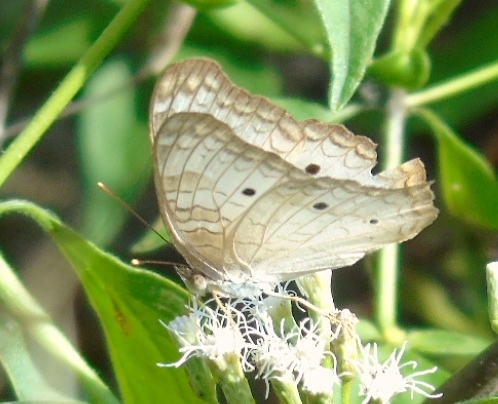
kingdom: Animalia
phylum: Arthropoda
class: Insecta
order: Lepidoptera
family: Nymphalidae
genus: Anartia
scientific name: Anartia jatrophae
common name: White peacock
